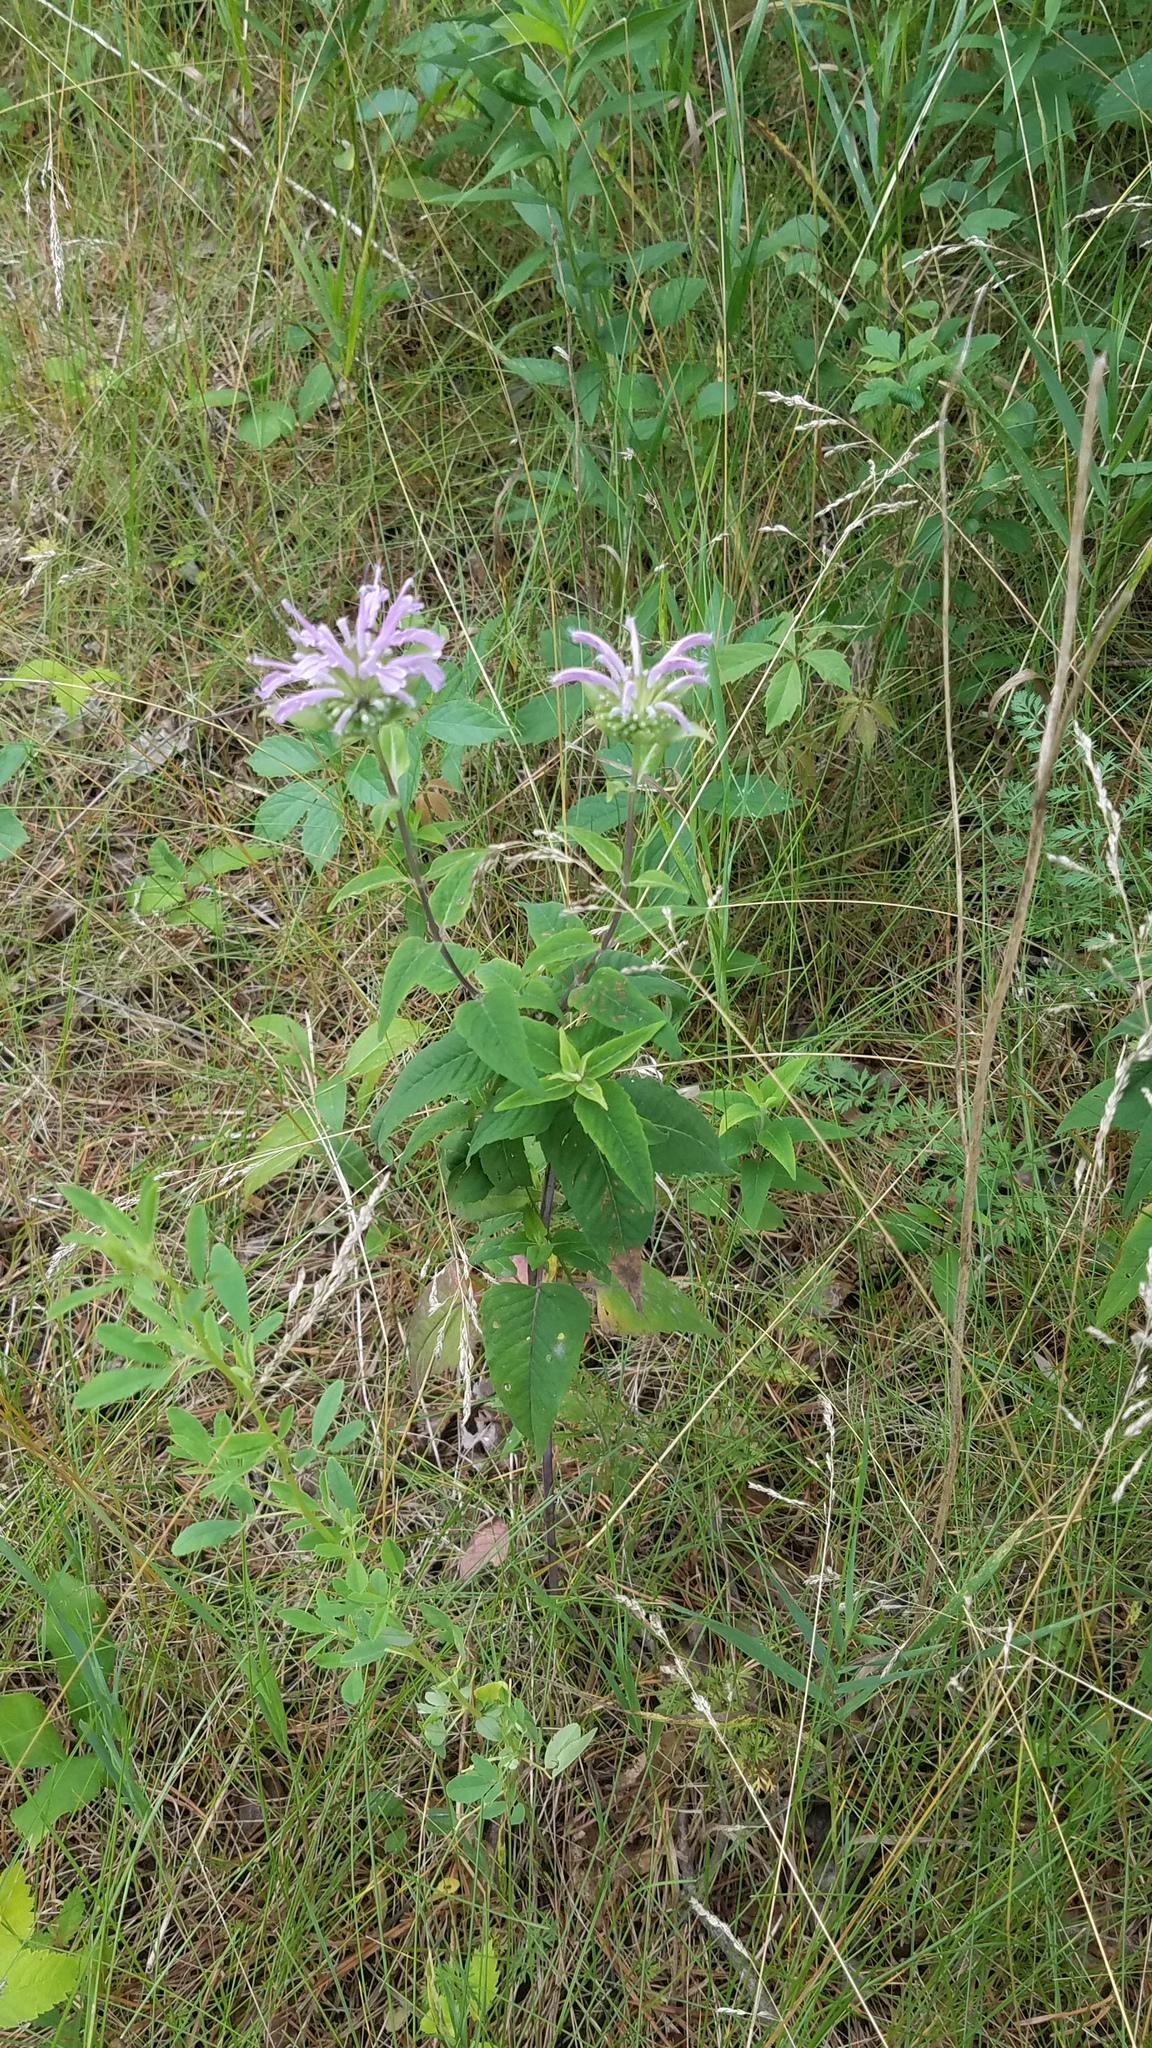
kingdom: Plantae
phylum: Tracheophyta
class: Magnoliopsida
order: Lamiales
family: Lamiaceae
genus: Monarda
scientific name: Monarda fistulosa
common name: Purple beebalm
